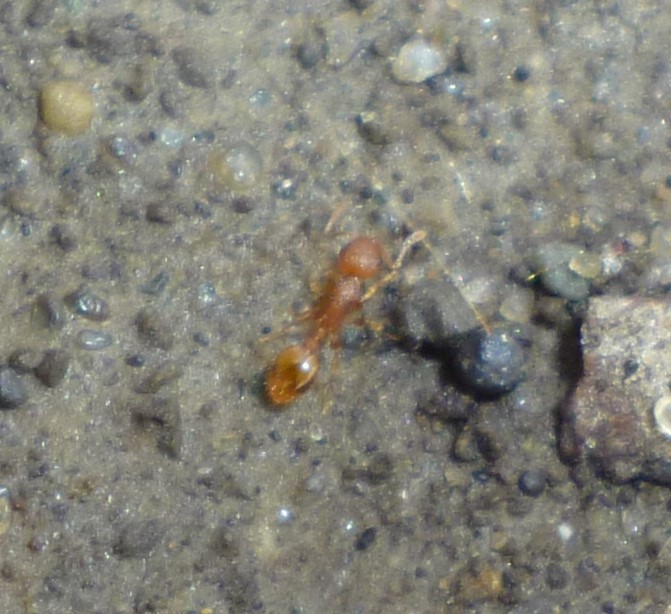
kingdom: Animalia
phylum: Arthropoda
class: Insecta
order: Hymenoptera
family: Formicidae
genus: Temnothorax
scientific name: Temnothorax curvispinosus
